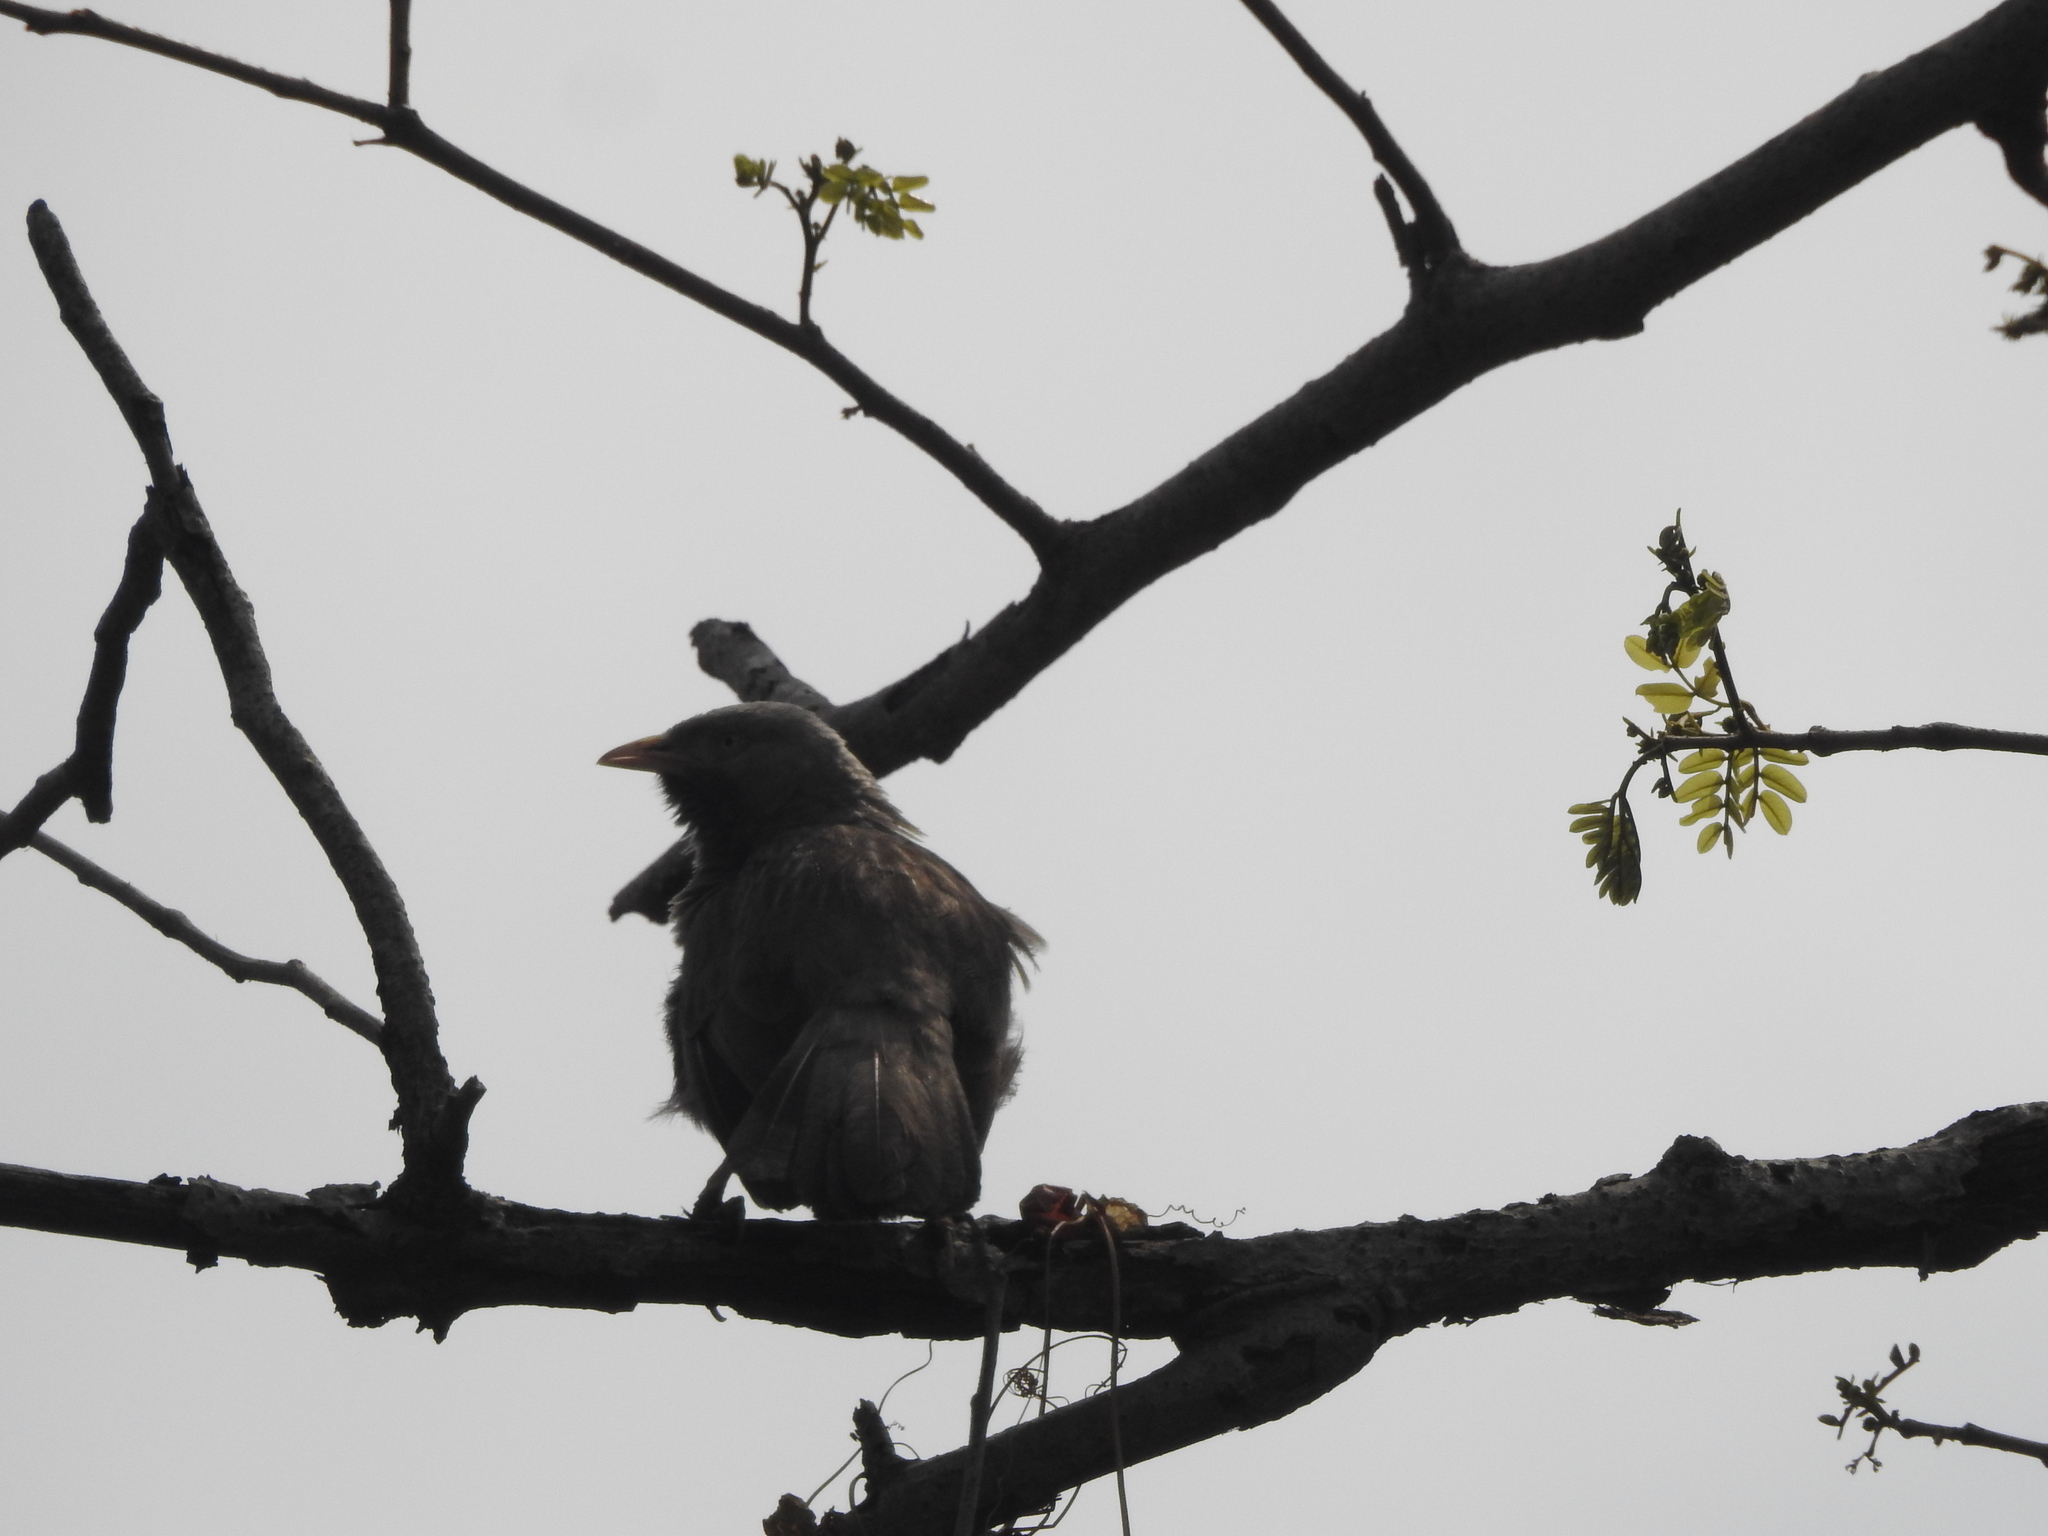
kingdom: Animalia
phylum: Chordata
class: Aves
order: Passeriformes
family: Leiothrichidae
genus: Turdoides
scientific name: Turdoides affinis
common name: Yellow-billed babbler
